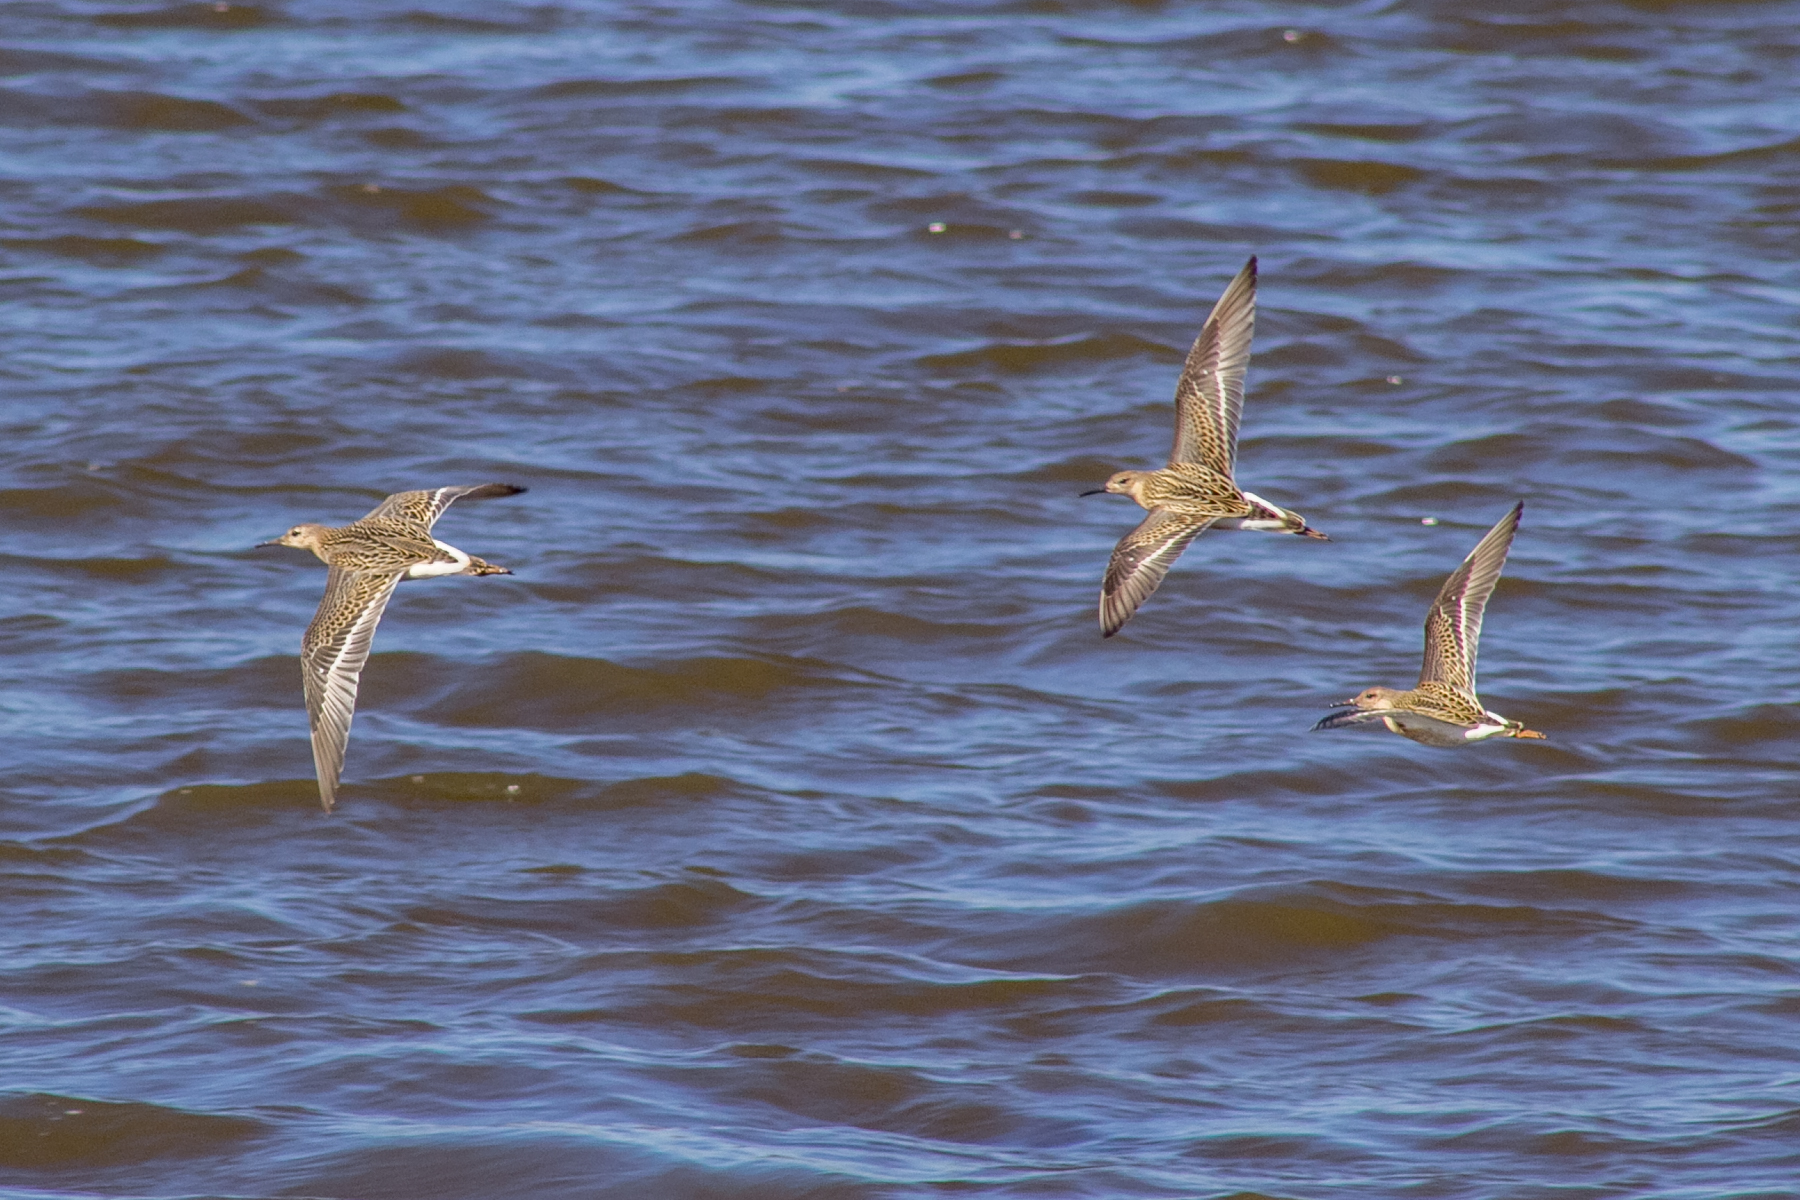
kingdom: Animalia
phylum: Chordata
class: Aves
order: Charadriiformes
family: Scolopacidae
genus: Calidris
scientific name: Calidris pugnax
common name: Ruff
